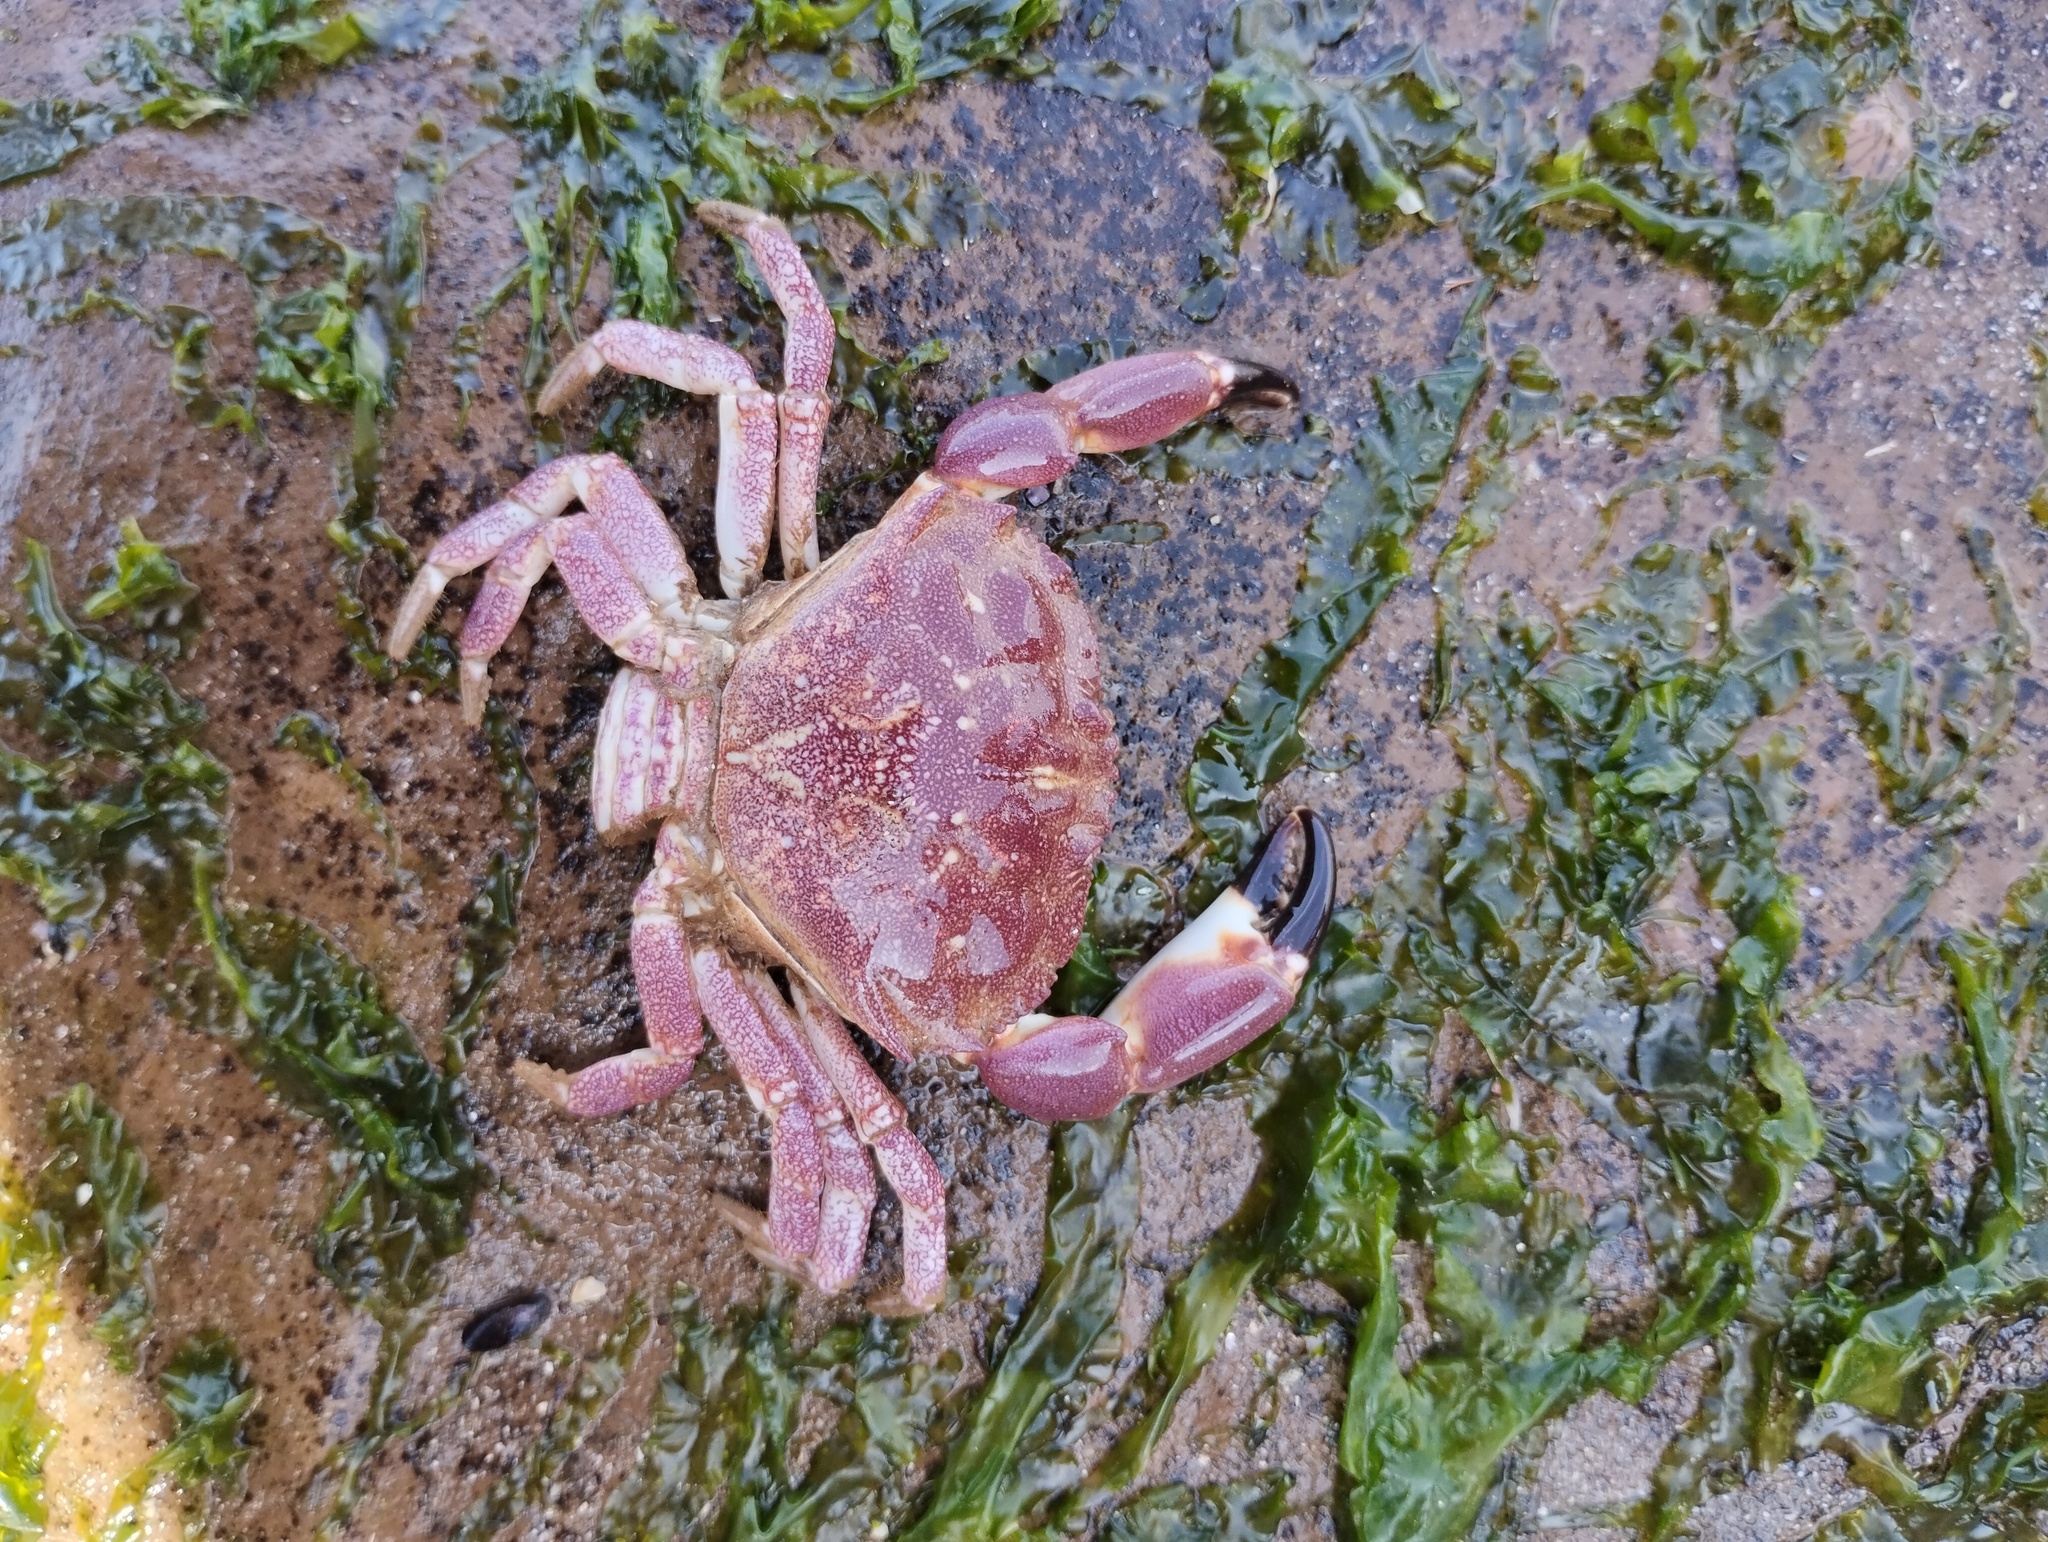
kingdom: Animalia
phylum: Arthropoda
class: Malacostraca
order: Decapoda
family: Platyxanthidae
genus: Danielethus
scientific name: Danielethus crenulatus
